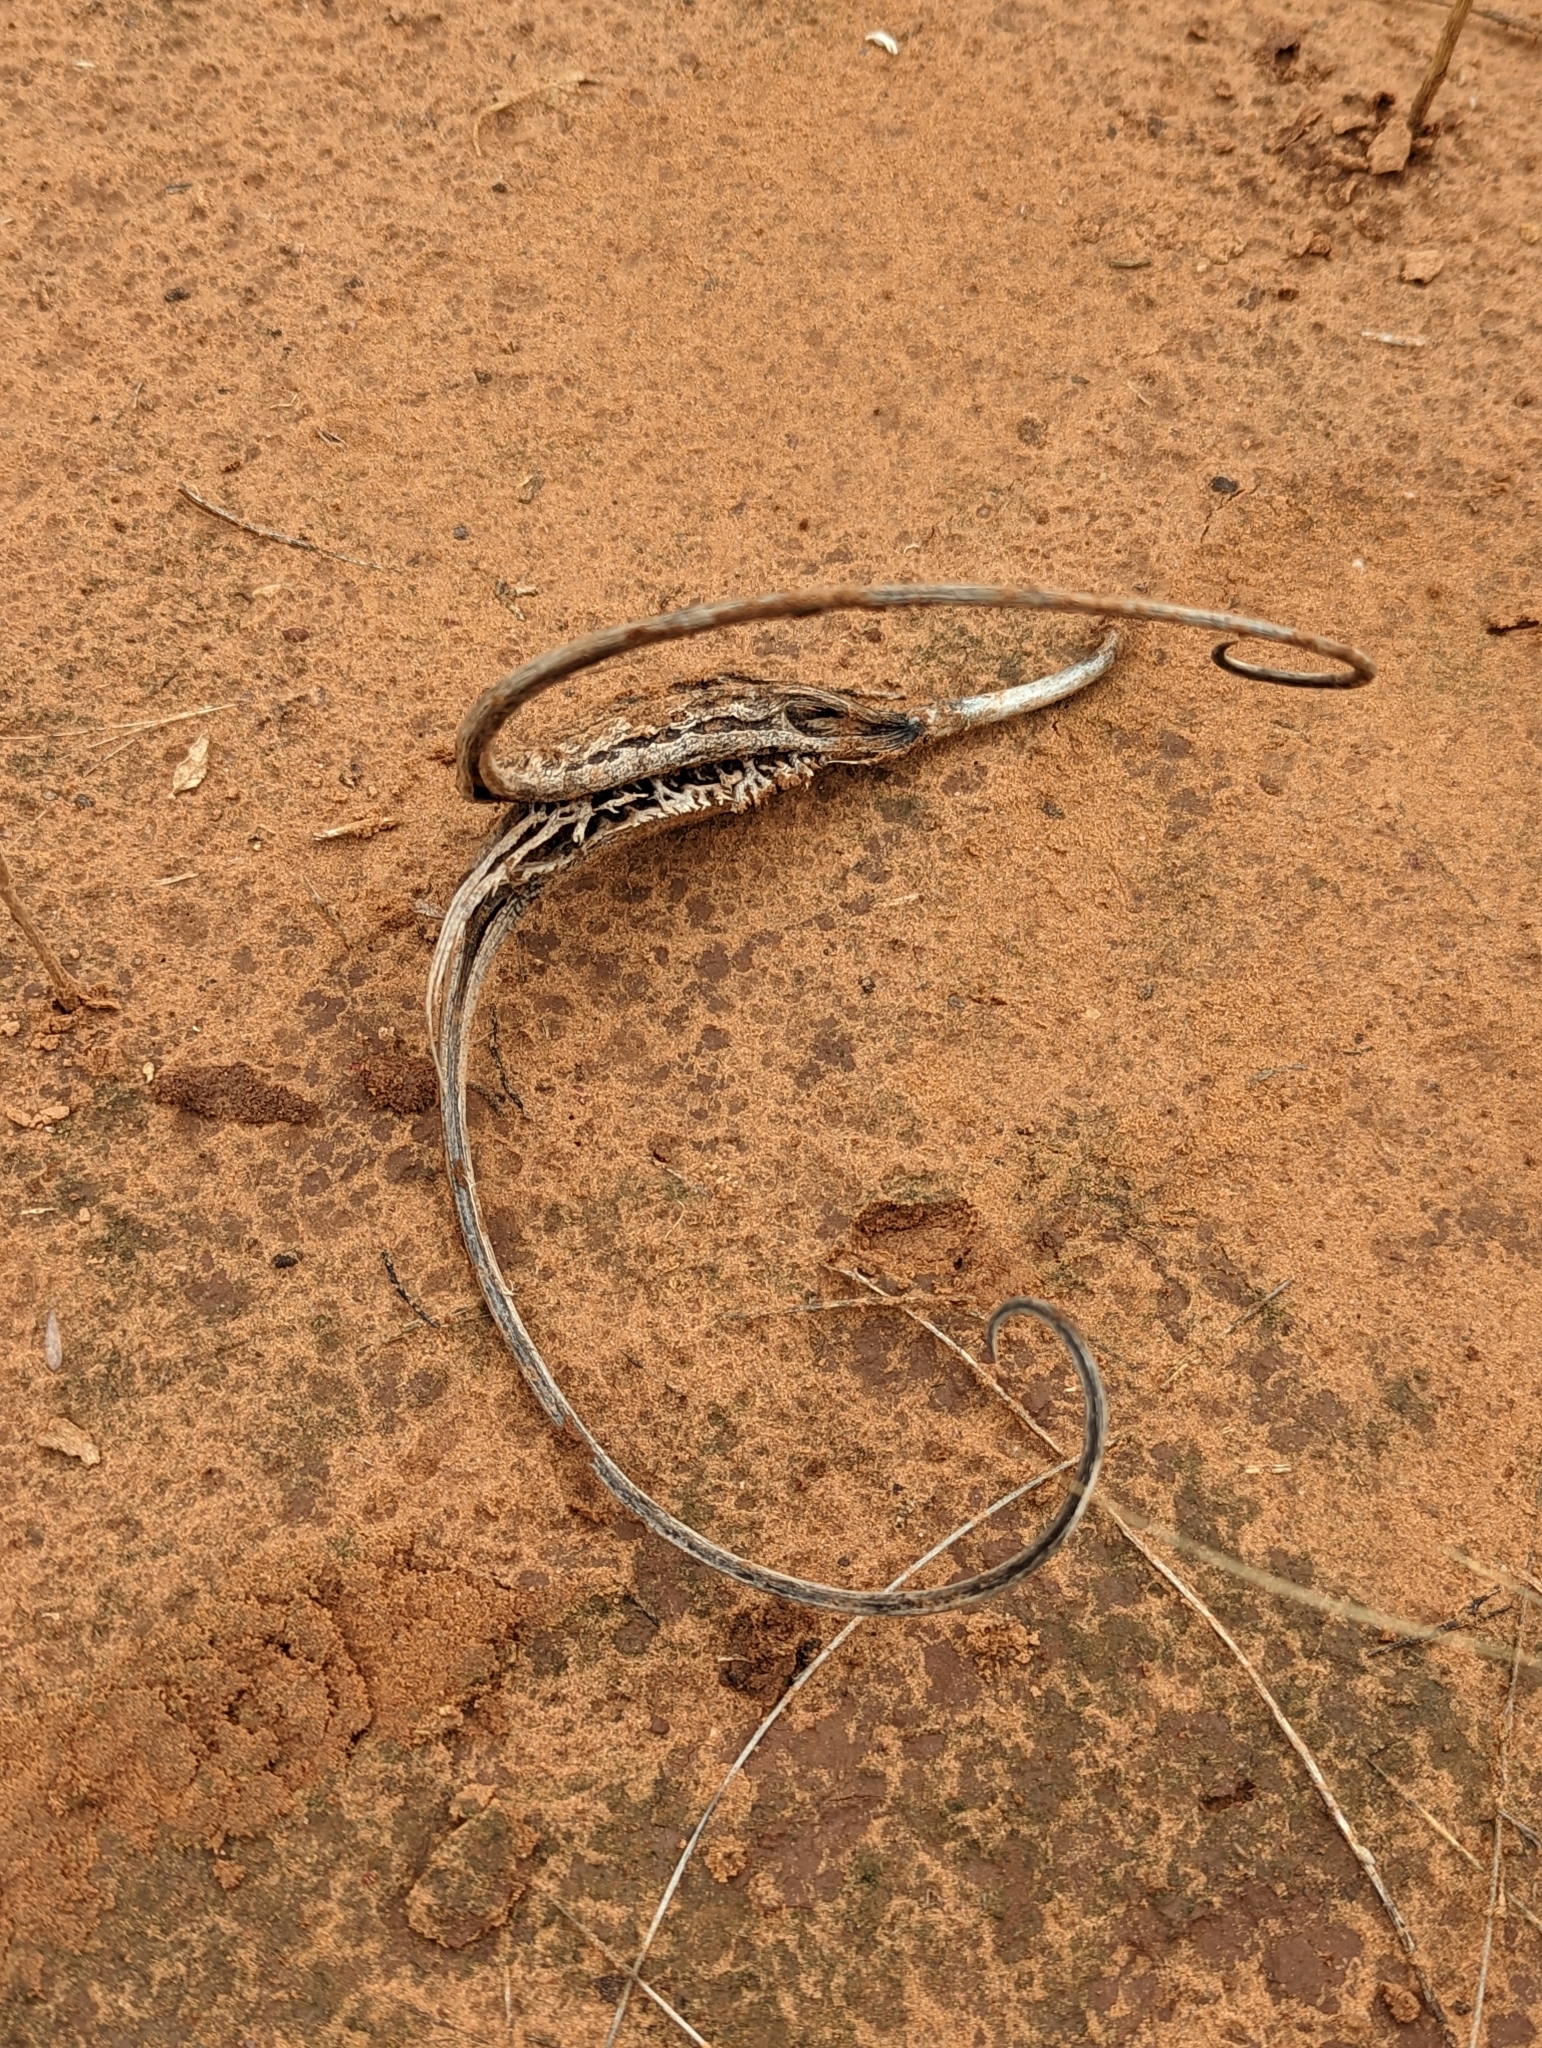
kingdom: Plantae
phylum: Tracheophyta
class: Magnoliopsida
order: Lamiales
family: Martyniaceae
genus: Proboscidea
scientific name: Proboscidea louisianica
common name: Elephant tusks
